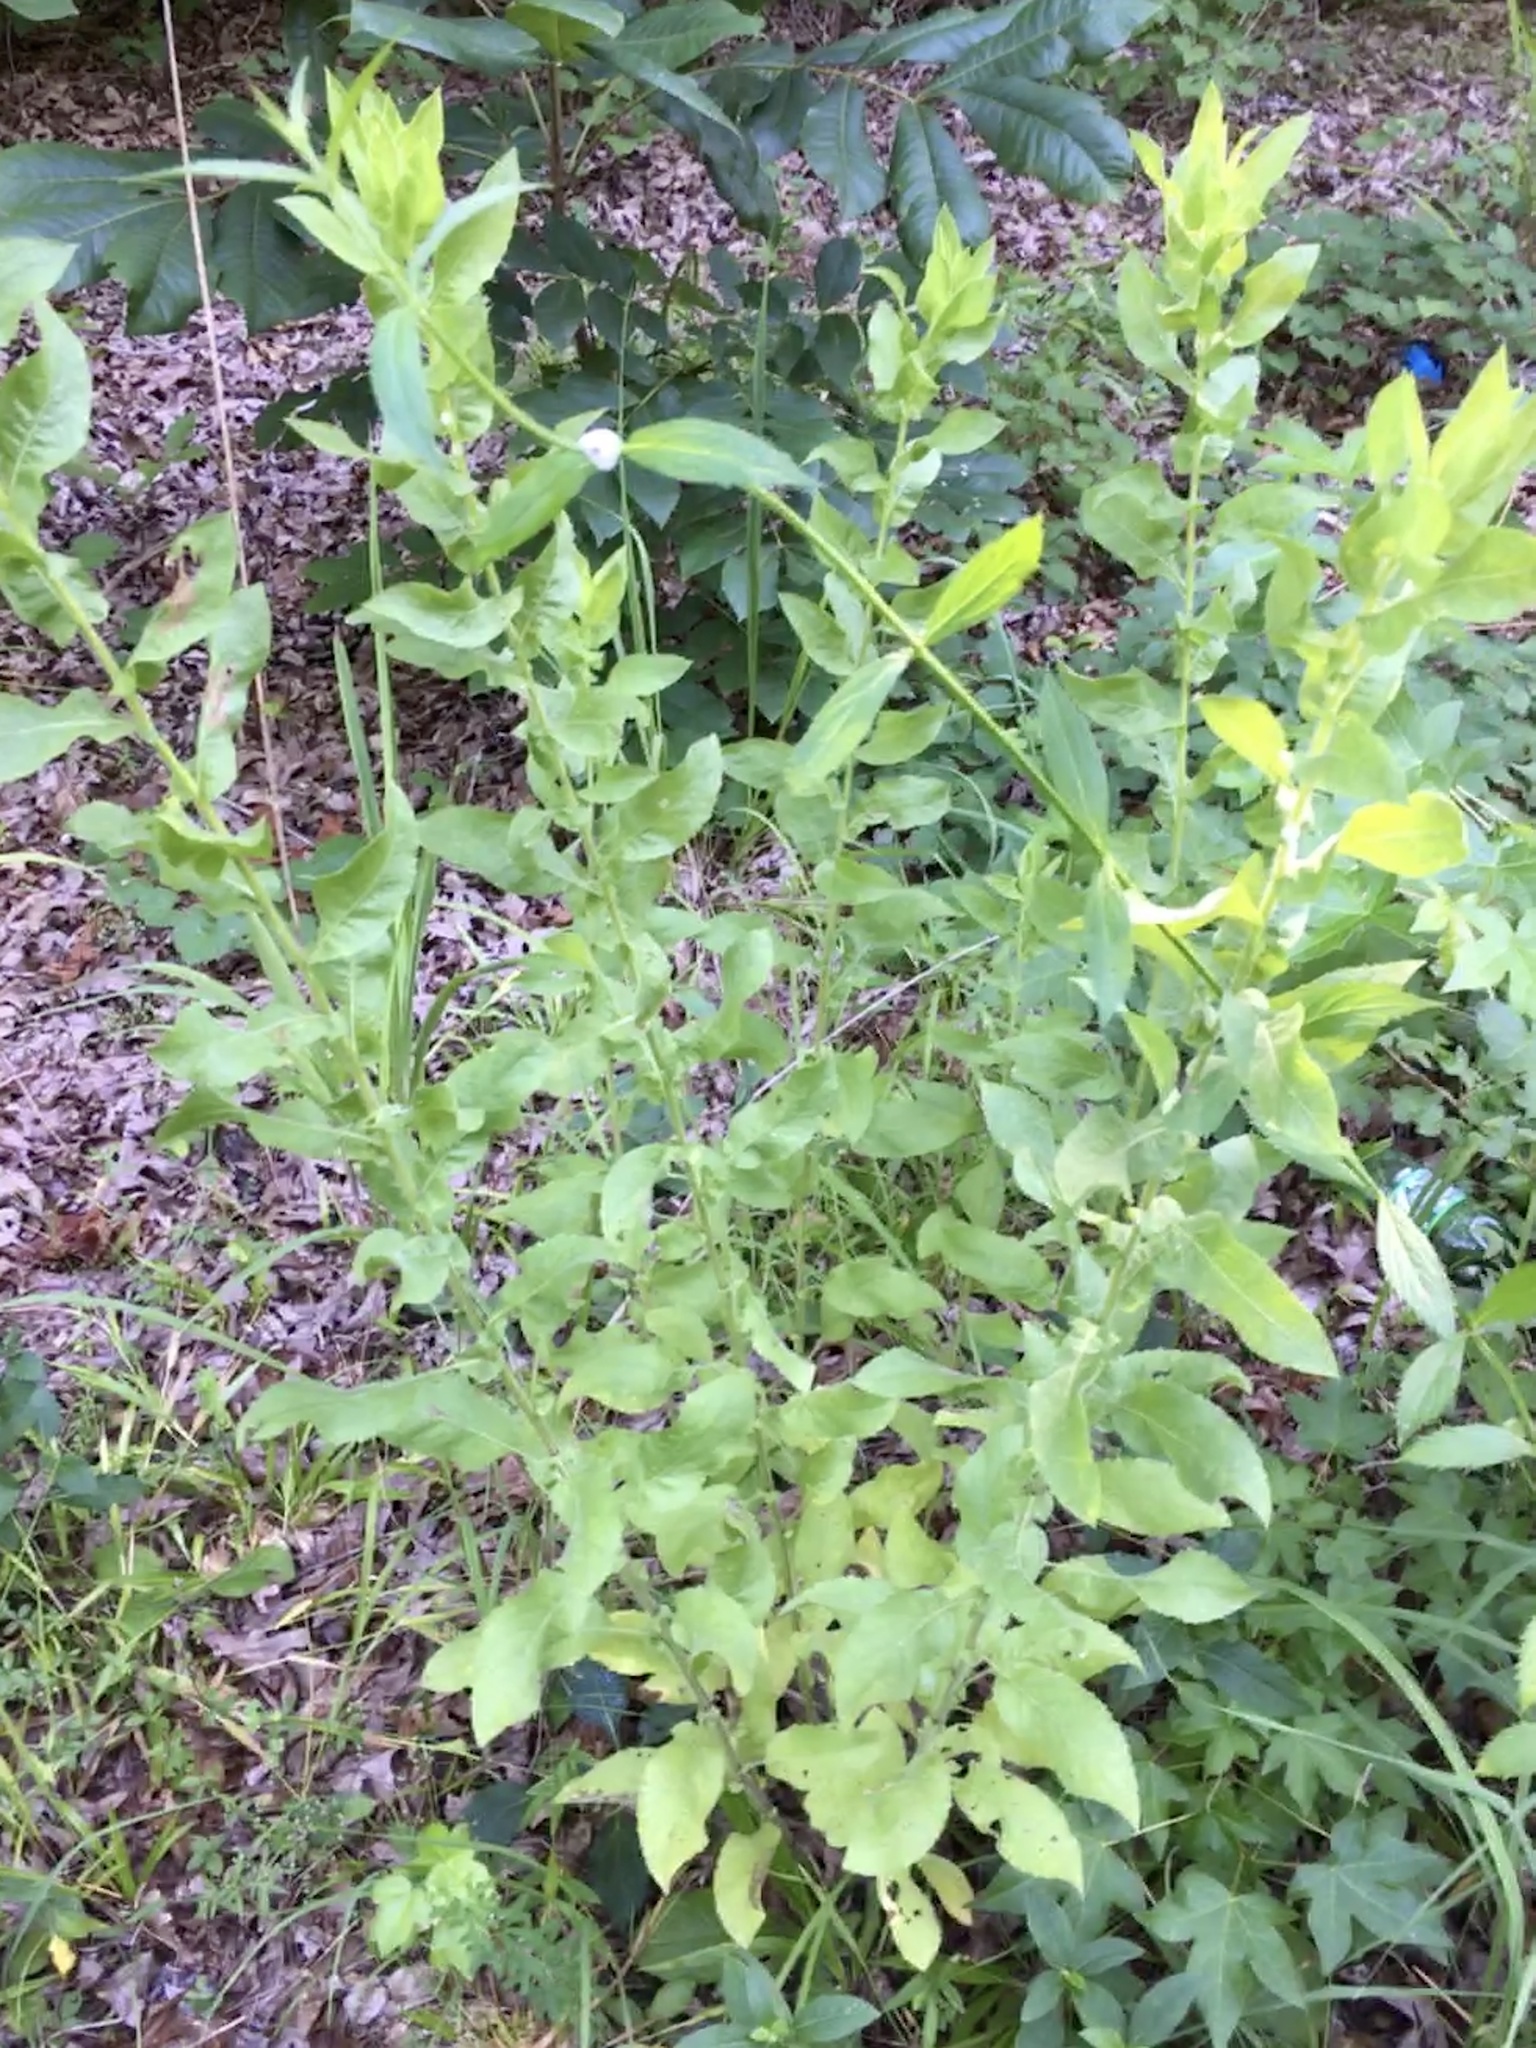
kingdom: Plantae
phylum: Tracheophyta
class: Magnoliopsida
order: Asterales
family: Asteraceae
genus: Heterotheca
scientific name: Heterotheca subaxillaris
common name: Camphorweed
